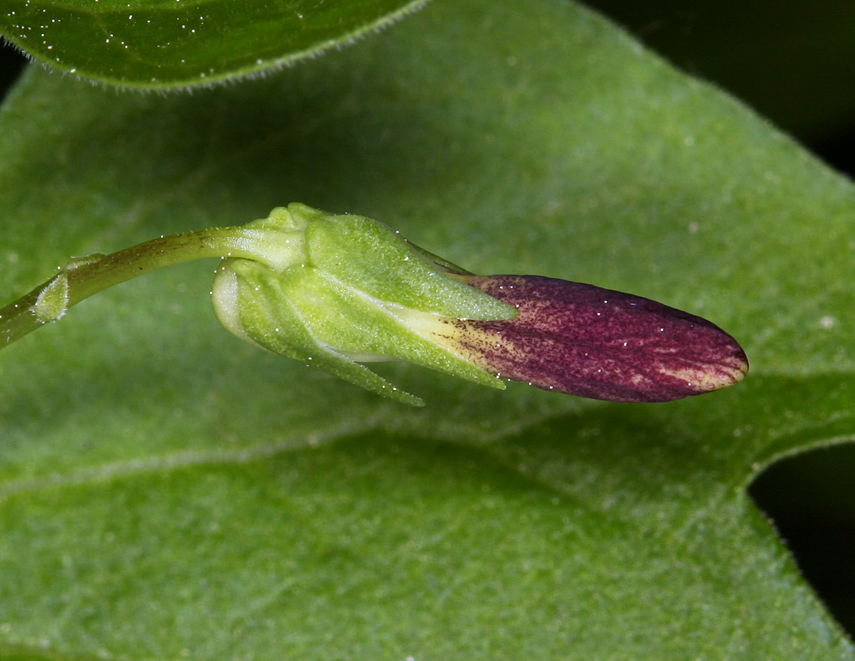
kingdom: Plantae
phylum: Tracheophyta
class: Magnoliopsida
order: Malpighiales
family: Violaceae
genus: Viola
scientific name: Viola lobata
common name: Pine violet
